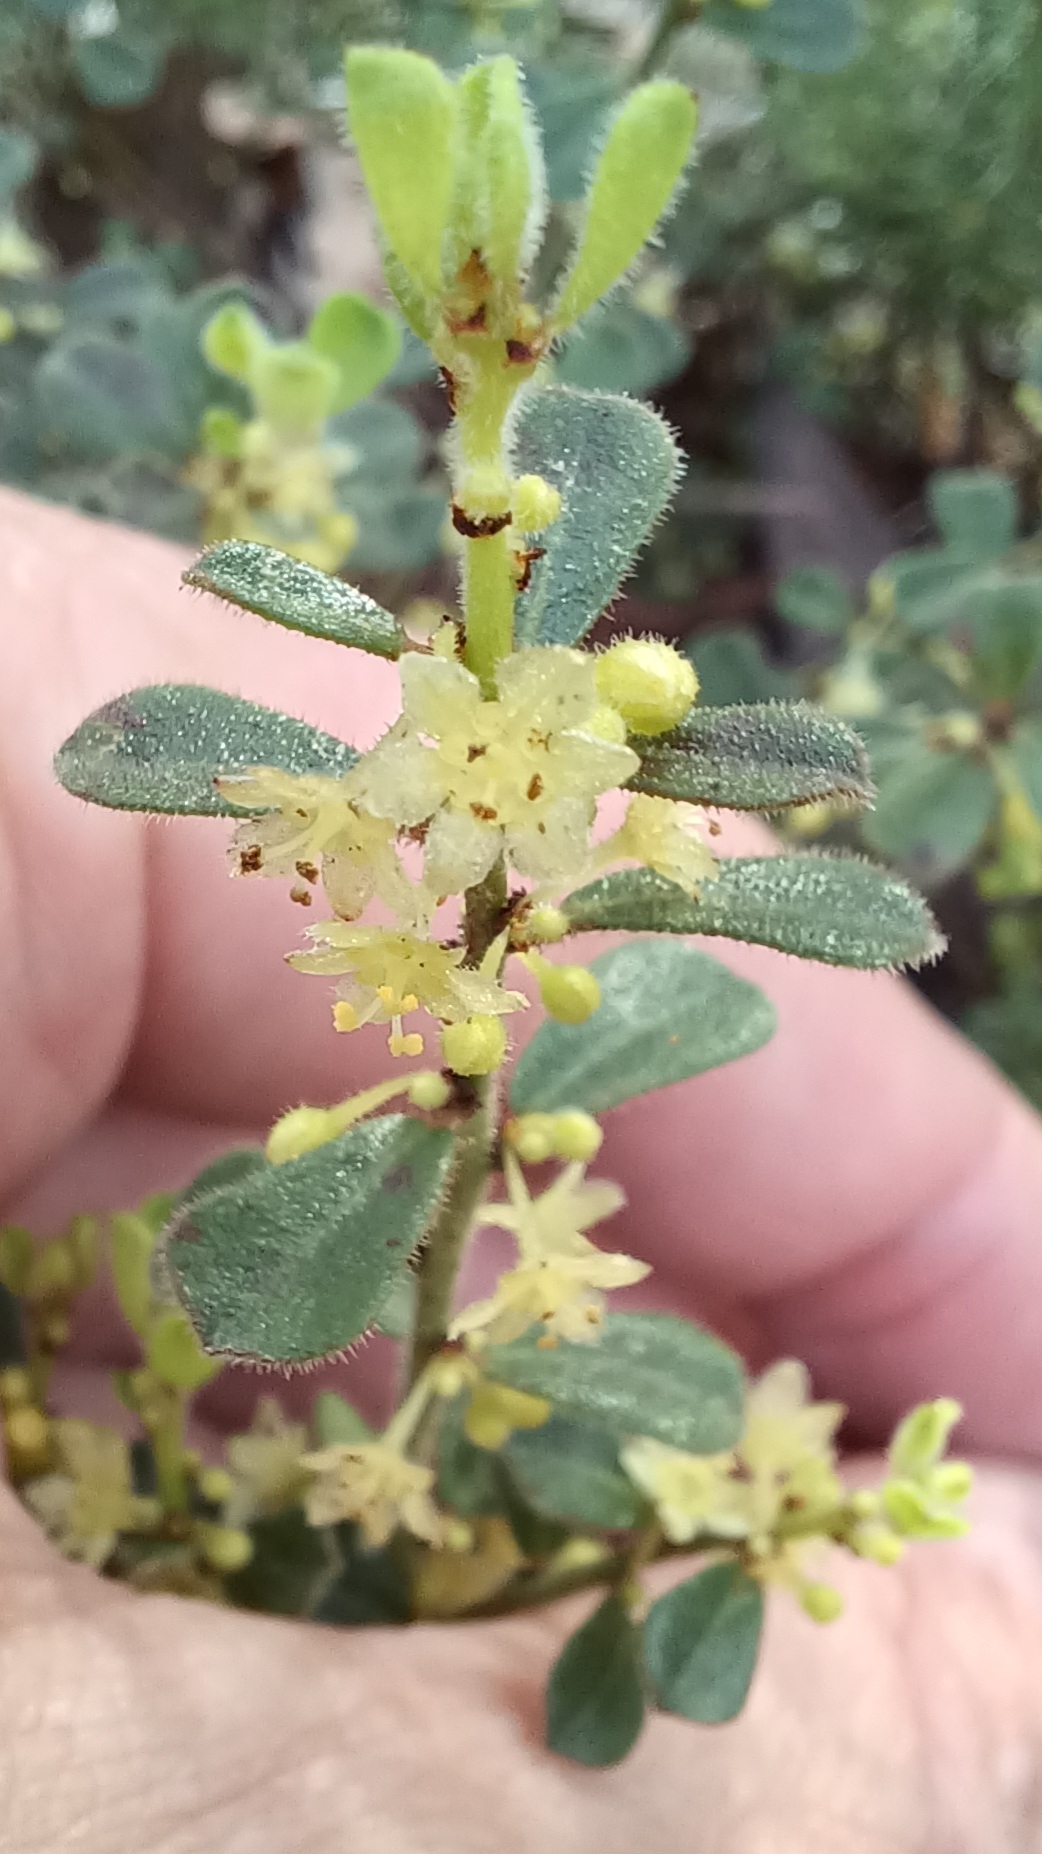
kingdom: Plantae
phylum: Tracheophyta
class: Magnoliopsida
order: Malpighiales
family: Phyllanthaceae
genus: Phyllanthus
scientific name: Phyllanthus hirtellus
